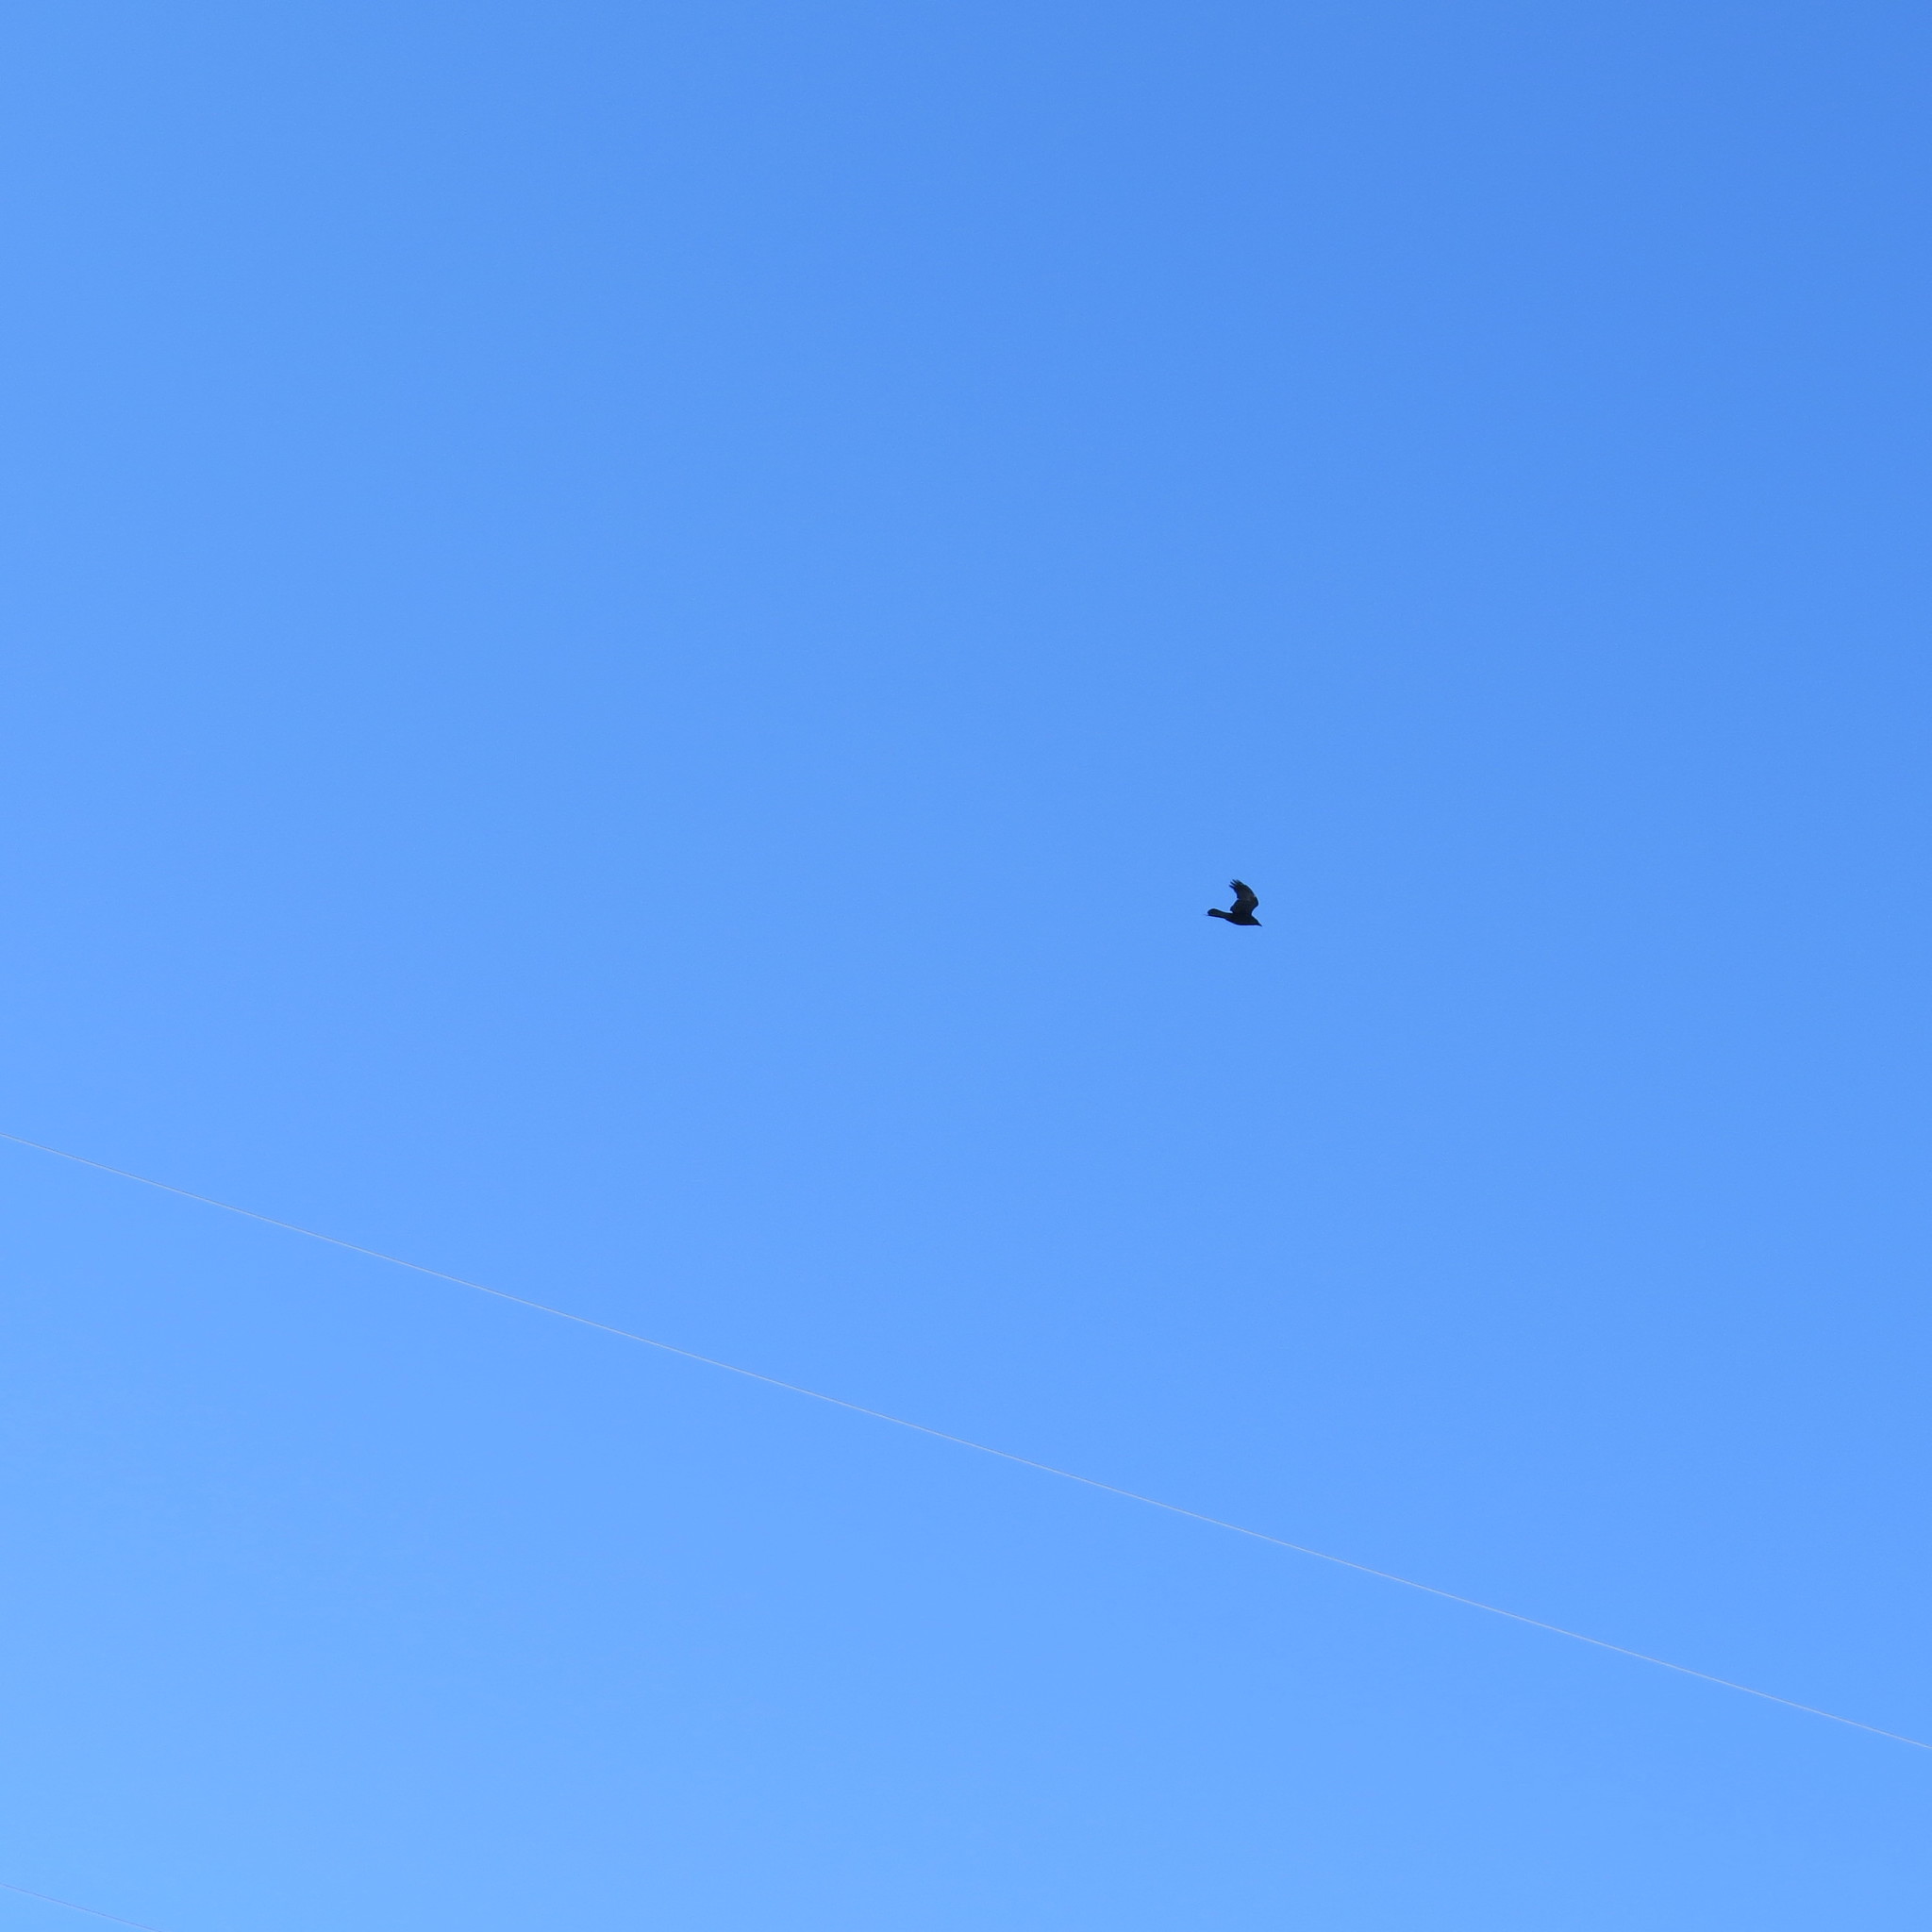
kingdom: Animalia
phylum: Chordata
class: Aves
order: Passeriformes
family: Corvidae
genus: Corvus
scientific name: Corvus corax
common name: Common raven
